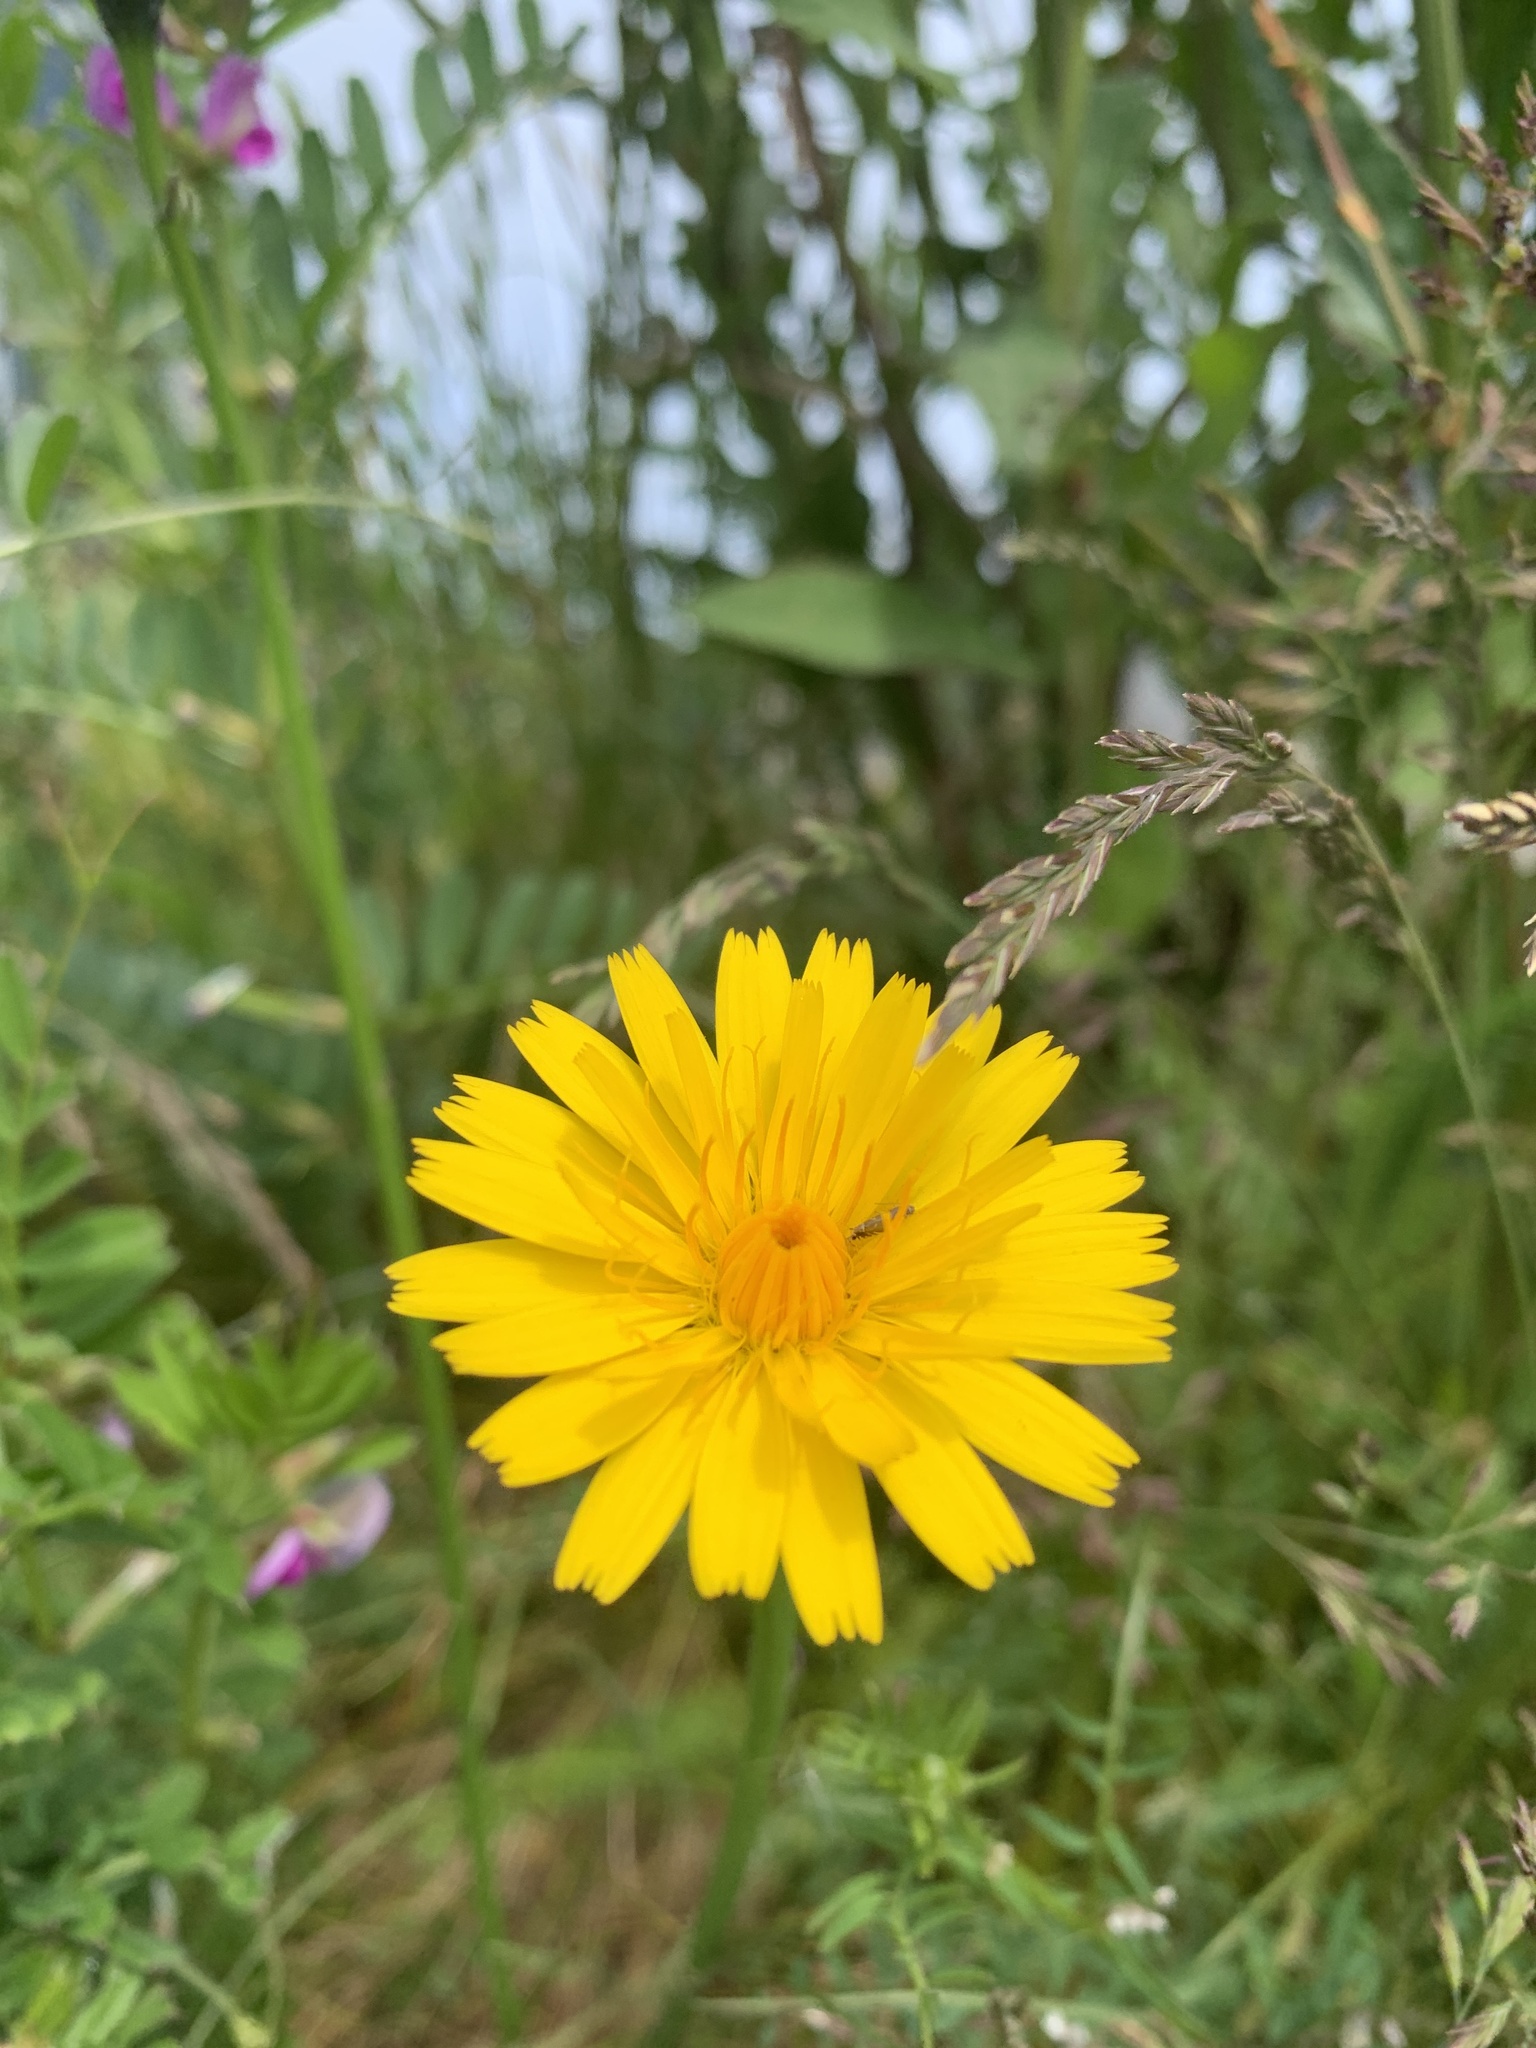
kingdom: Plantae
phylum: Tracheophyta
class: Magnoliopsida
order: Asterales
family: Asteraceae
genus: Hypochaeris
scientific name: Hypochaeris radicata
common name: Flatweed
